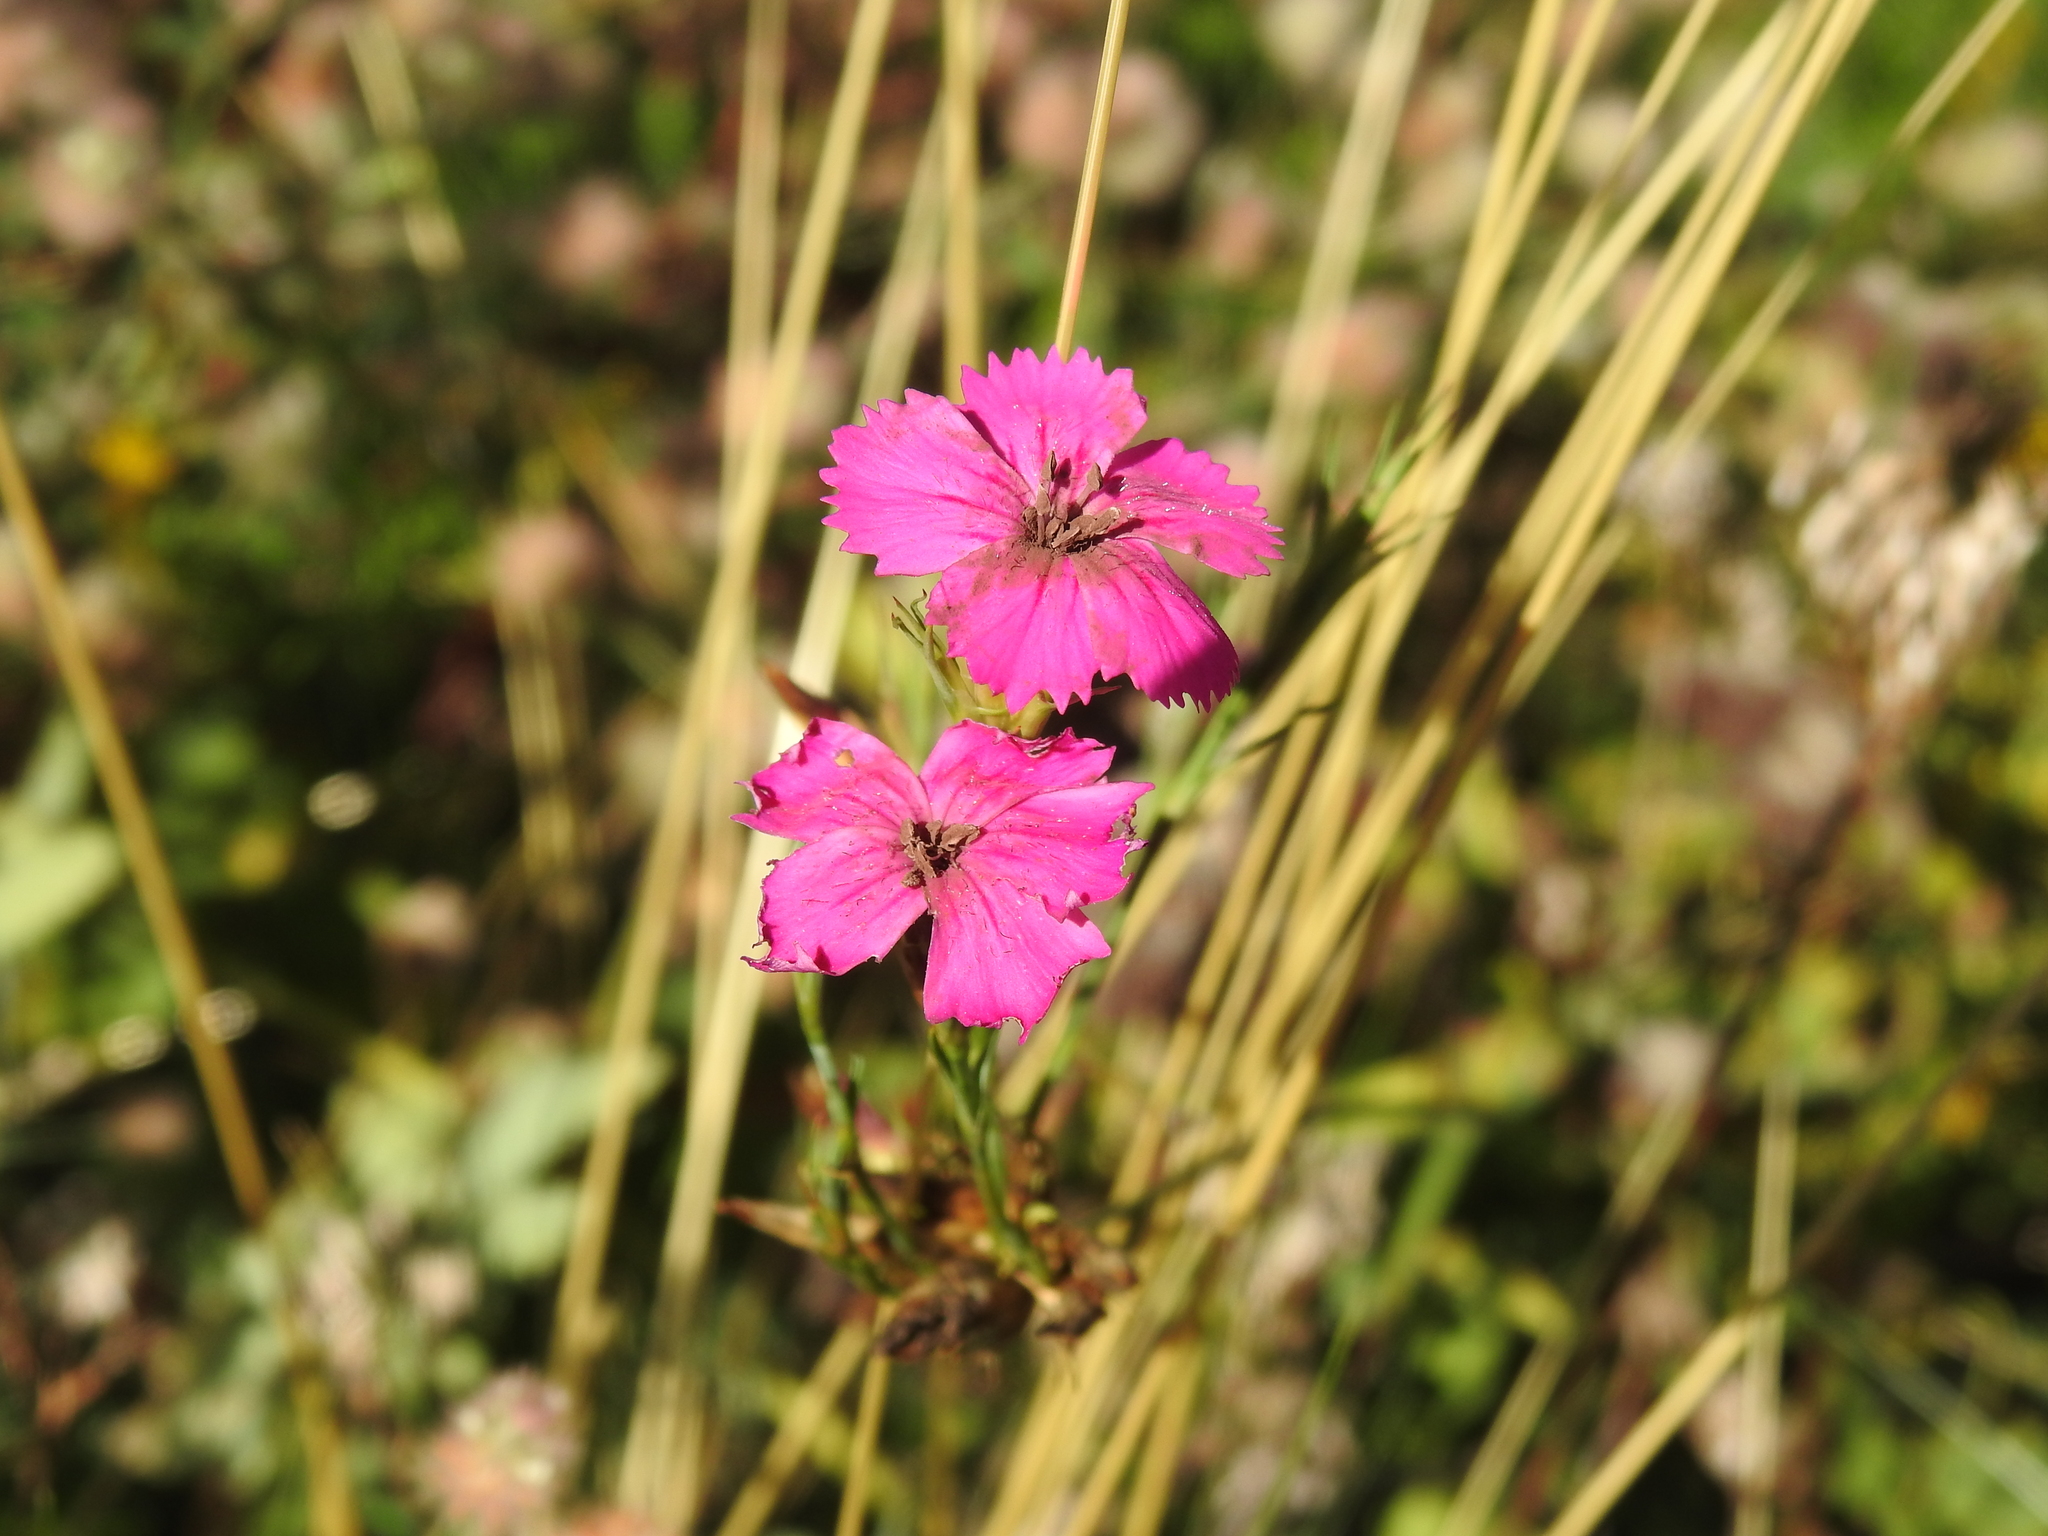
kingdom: Plantae
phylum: Tracheophyta
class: Magnoliopsida
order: Caryophyllales
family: Caryophyllaceae
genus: Dianthus
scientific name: Dianthus carthusianorum
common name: Carthusian pink
